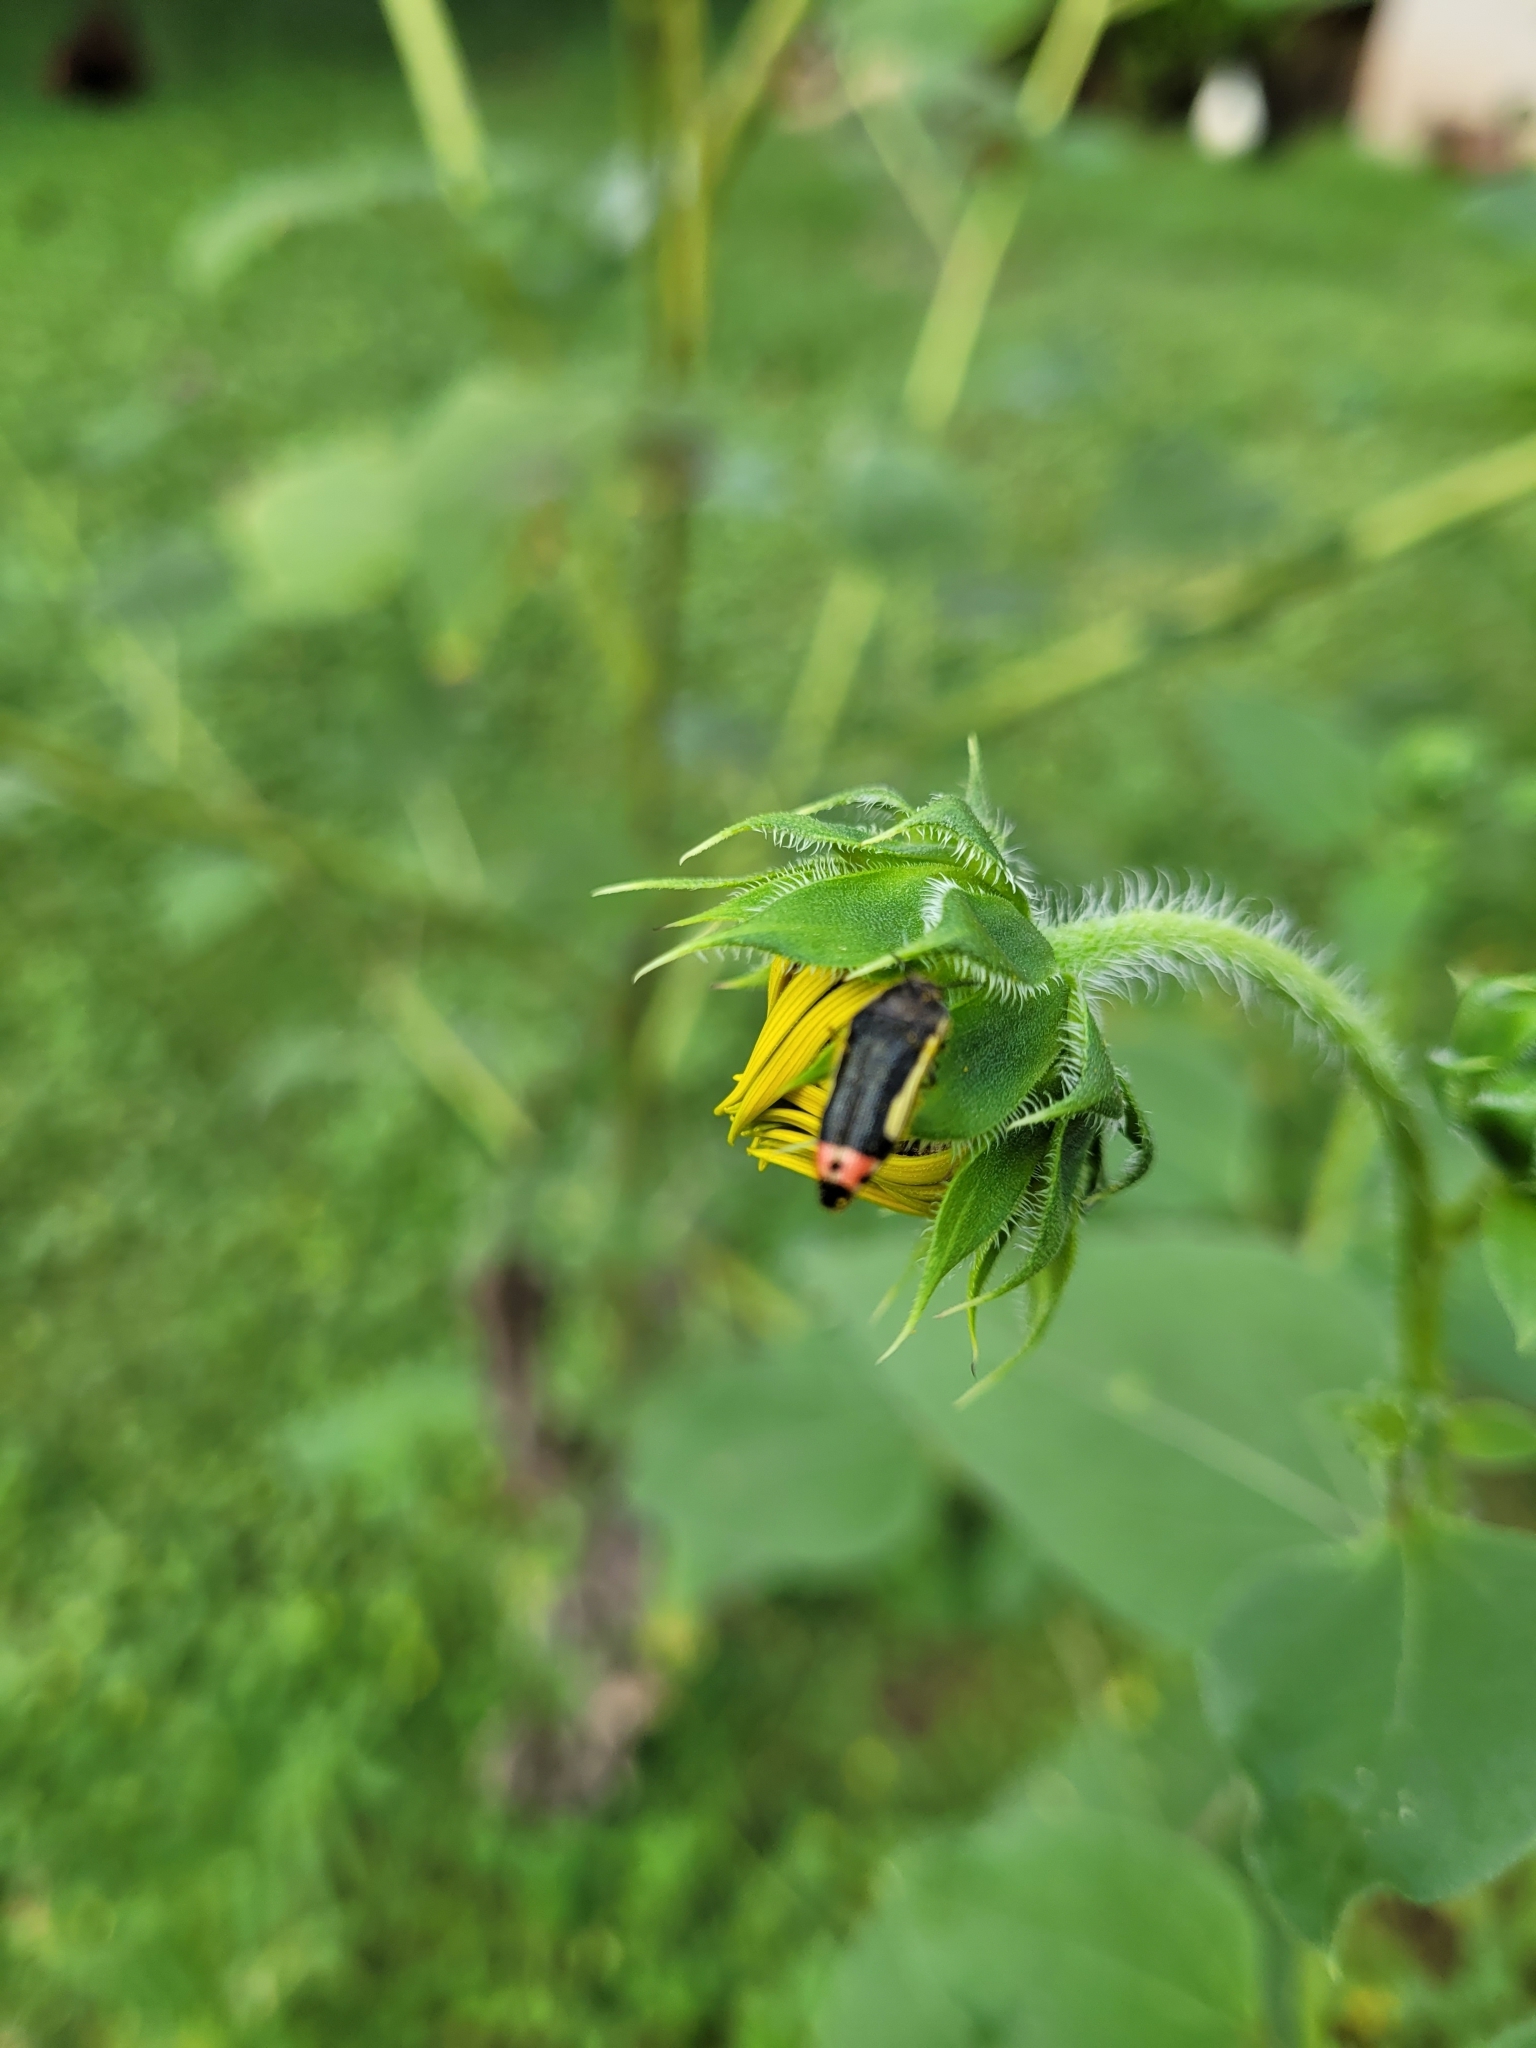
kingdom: Animalia
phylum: Arthropoda
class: Insecta
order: Coleoptera
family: Buprestidae
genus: Acmaeodera
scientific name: Acmaeodera flavomarginata
